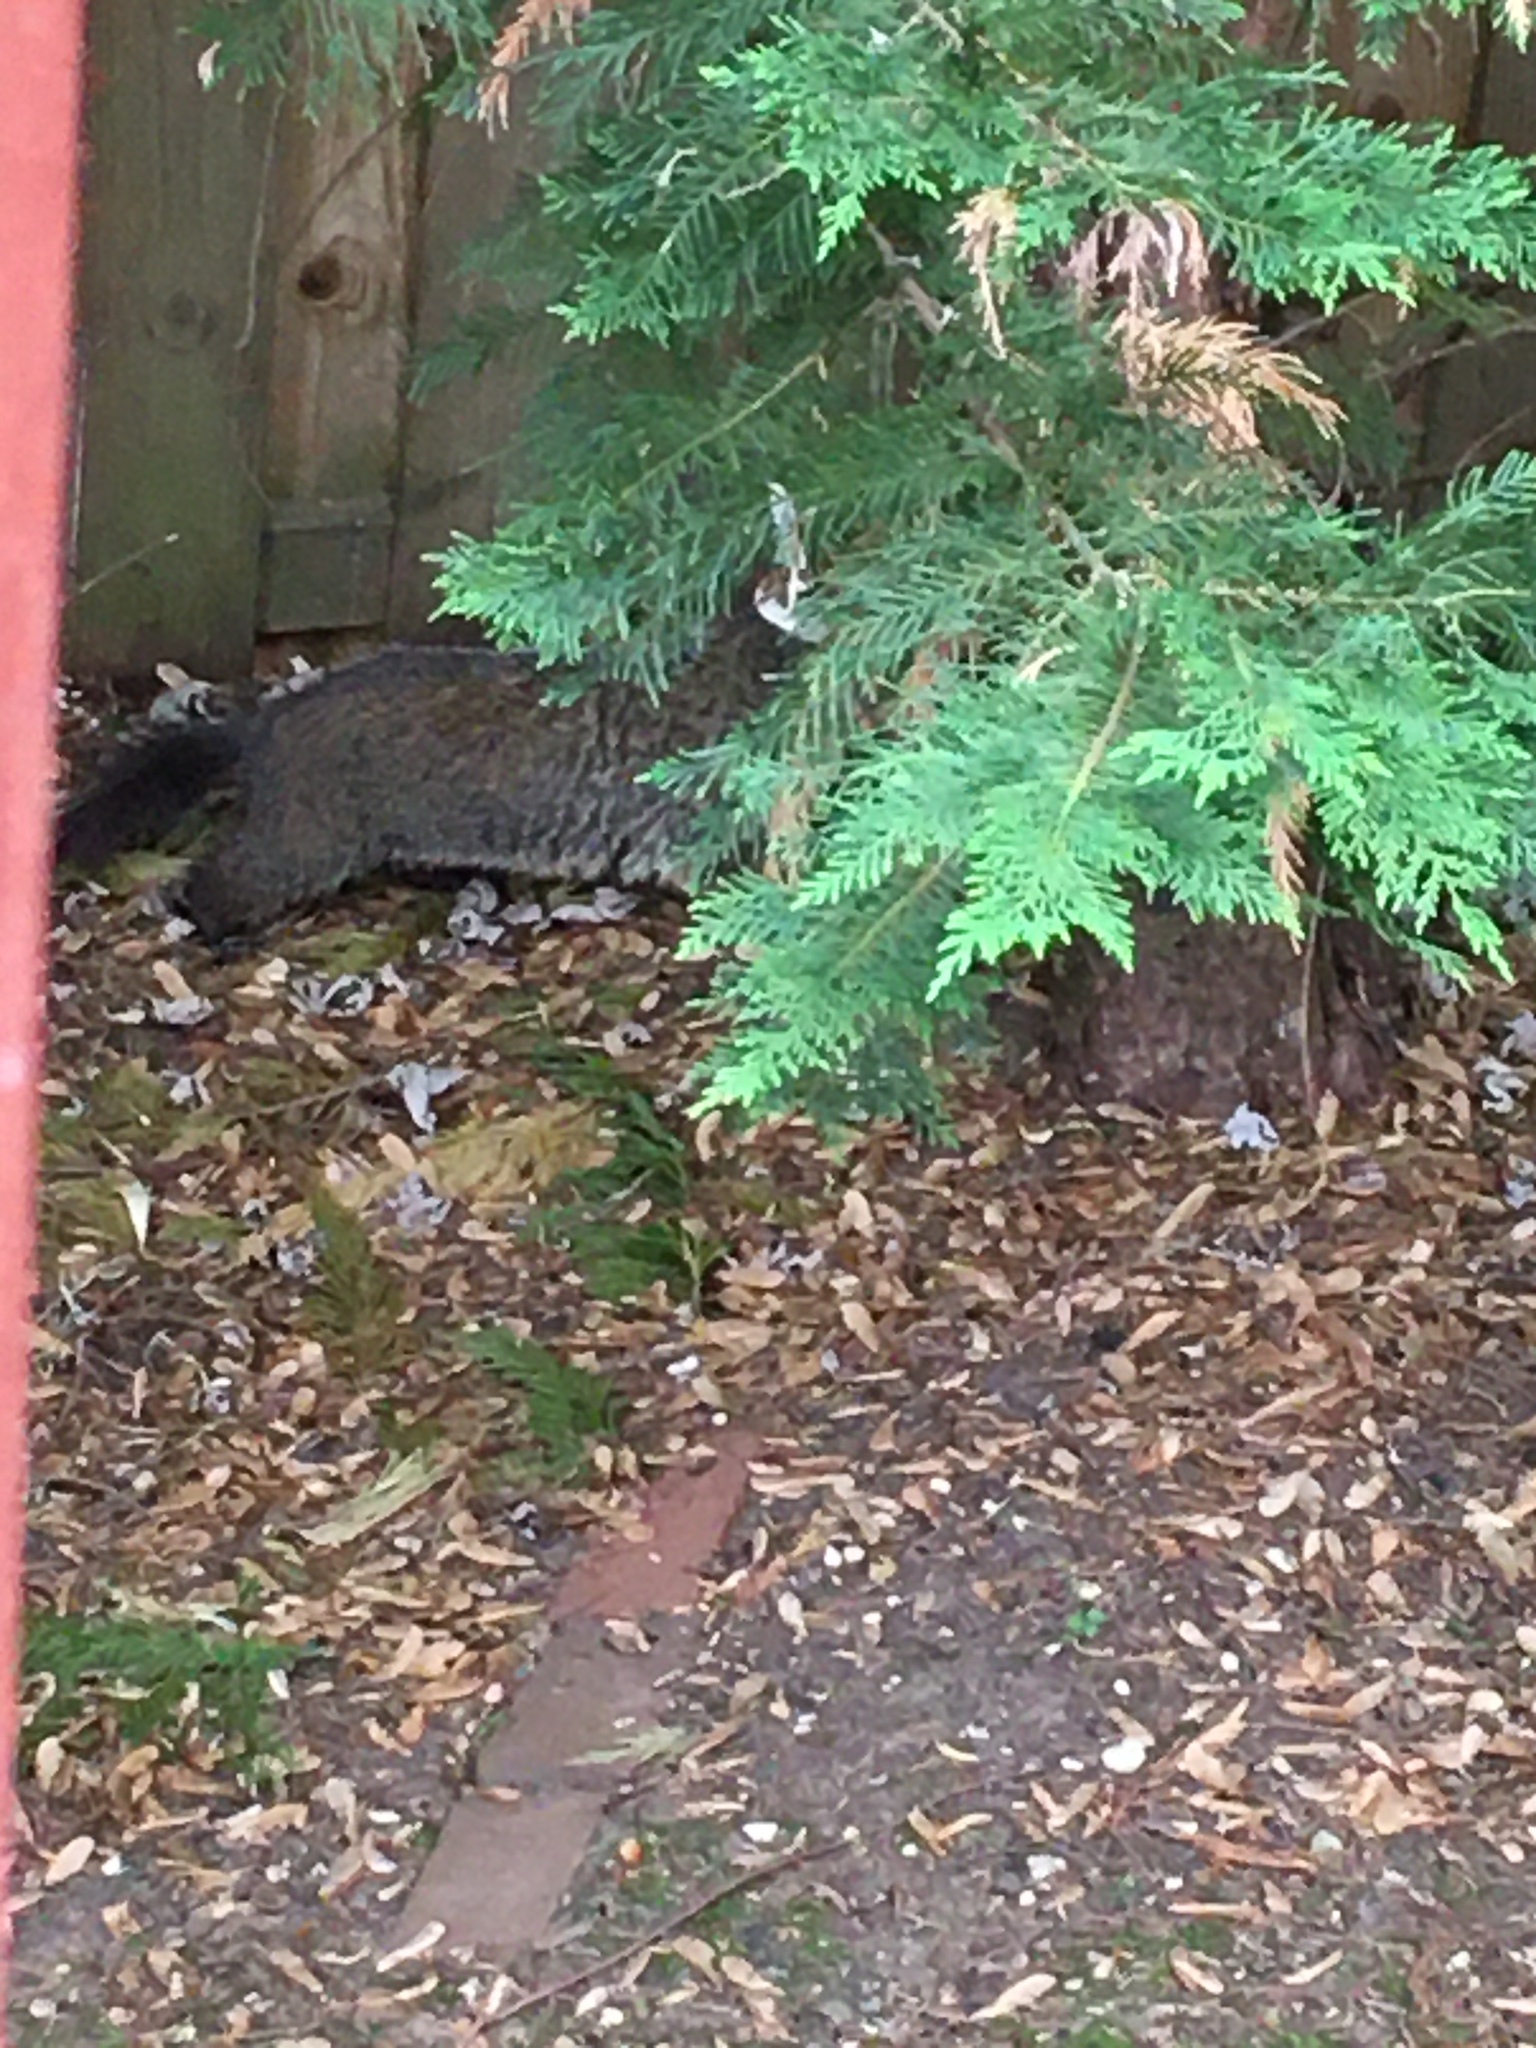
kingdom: Animalia
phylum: Chordata
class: Mammalia
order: Rodentia
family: Sciuridae
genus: Marmota
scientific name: Marmota monax
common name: Groundhog
